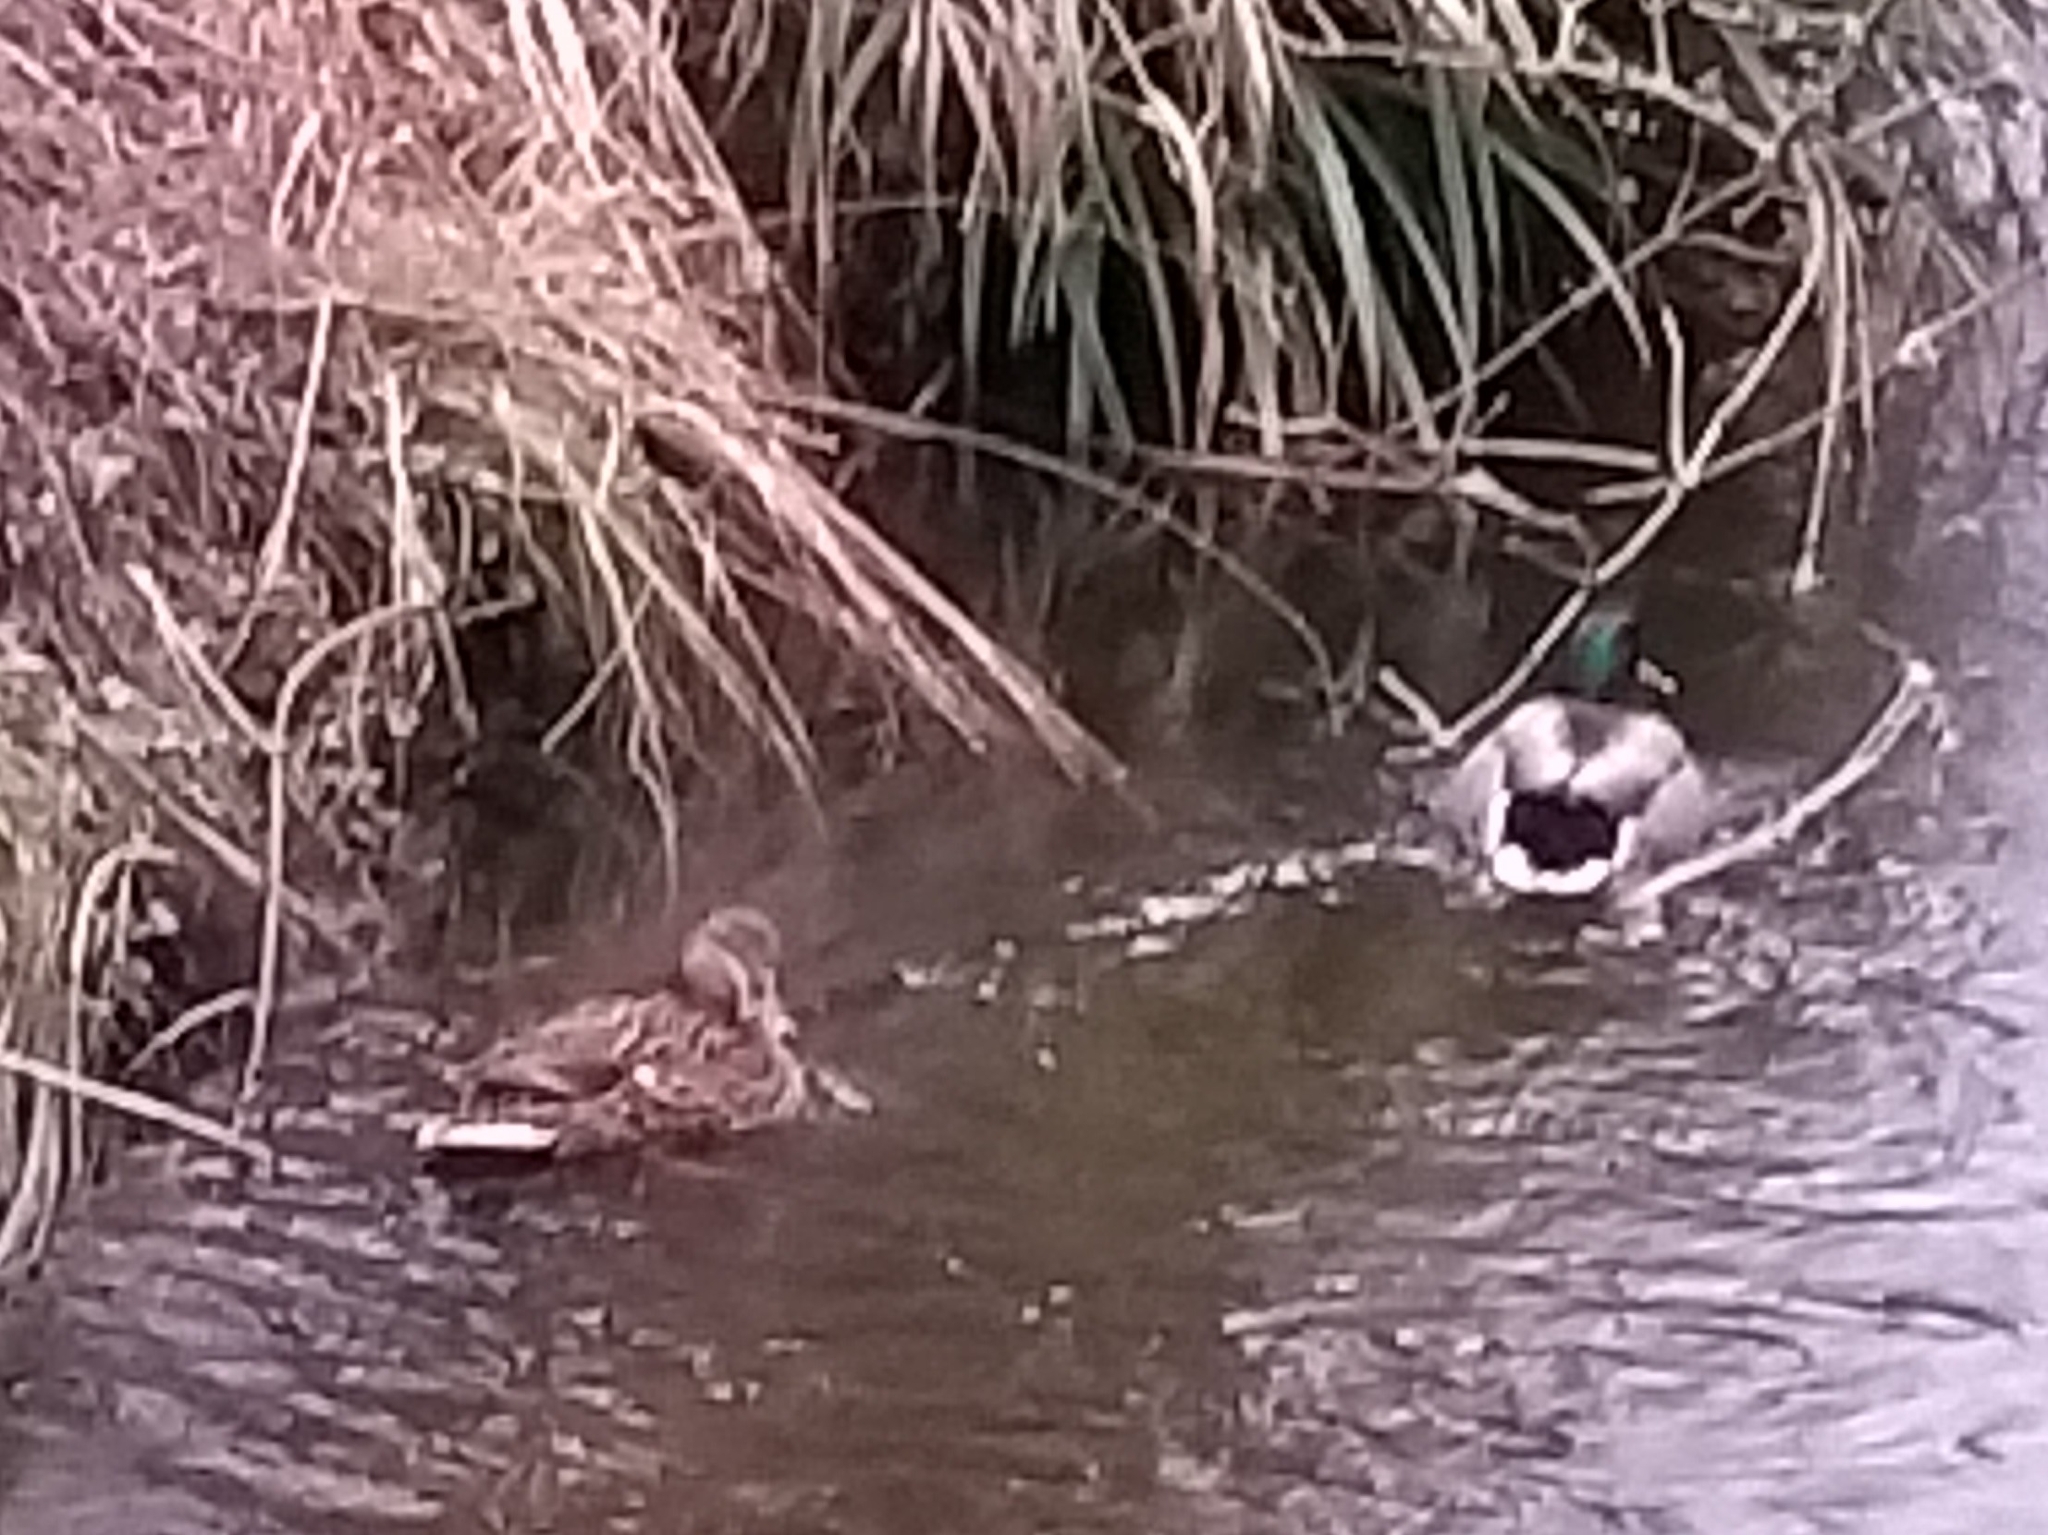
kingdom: Animalia
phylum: Chordata
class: Aves
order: Anseriformes
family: Anatidae
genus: Anas
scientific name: Anas platyrhynchos
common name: Mallard
